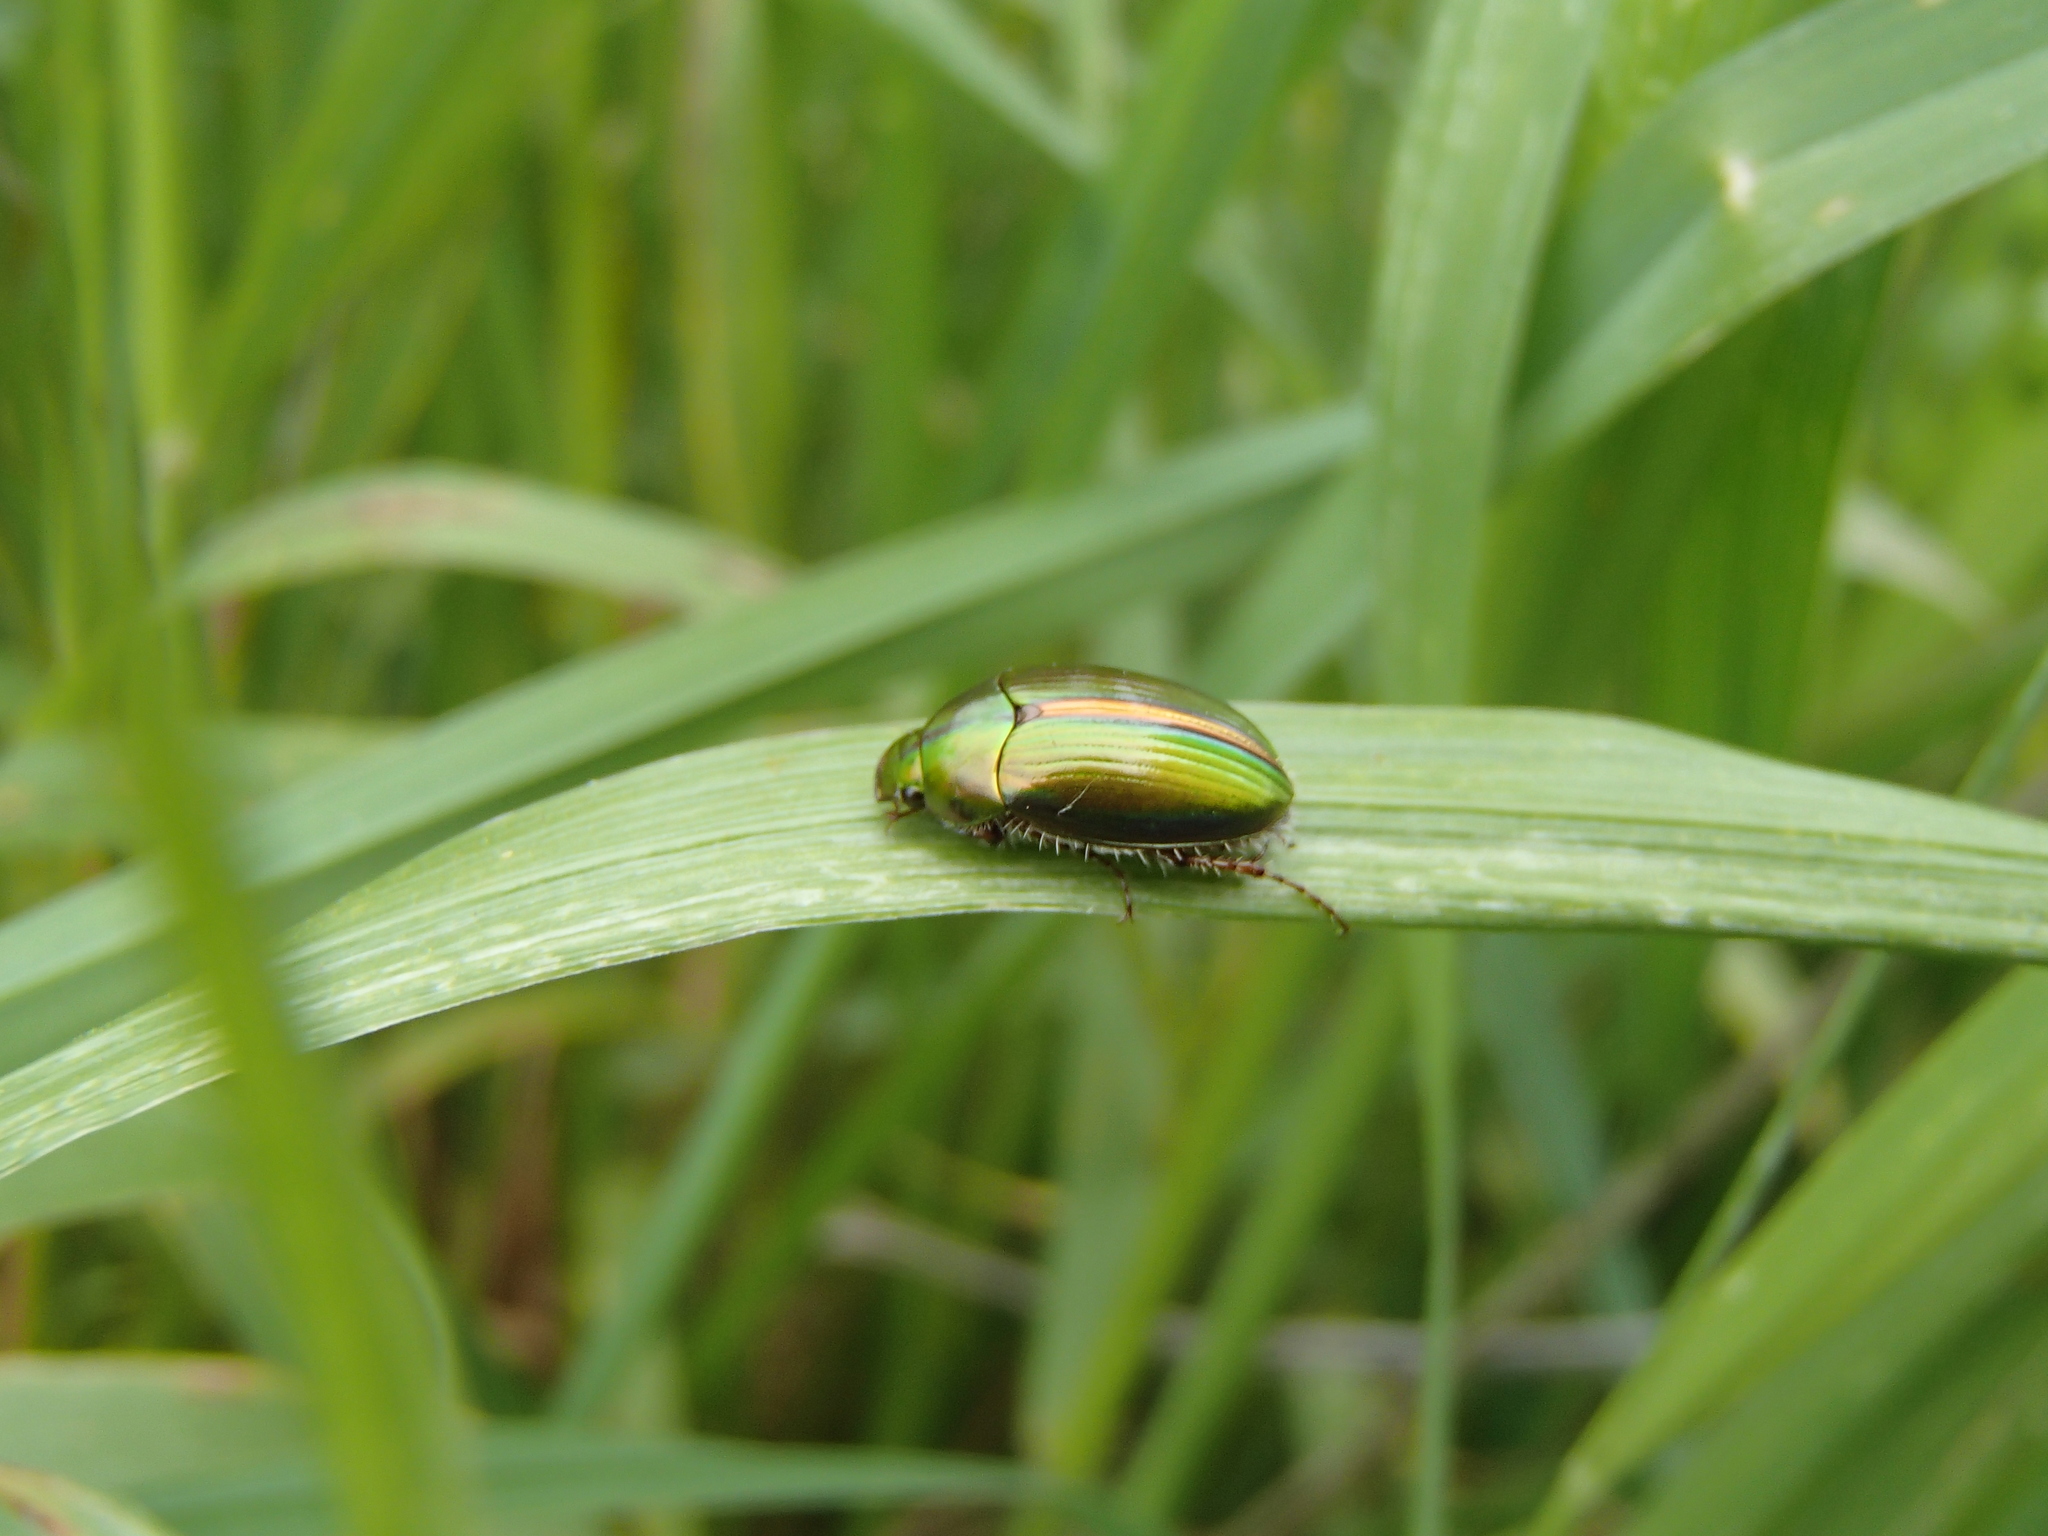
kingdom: Animalia
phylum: Arthropoda
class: Insecta
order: Coleoptera
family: Scarabaeidae
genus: Pyronota
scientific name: Pyronota edwardsi
